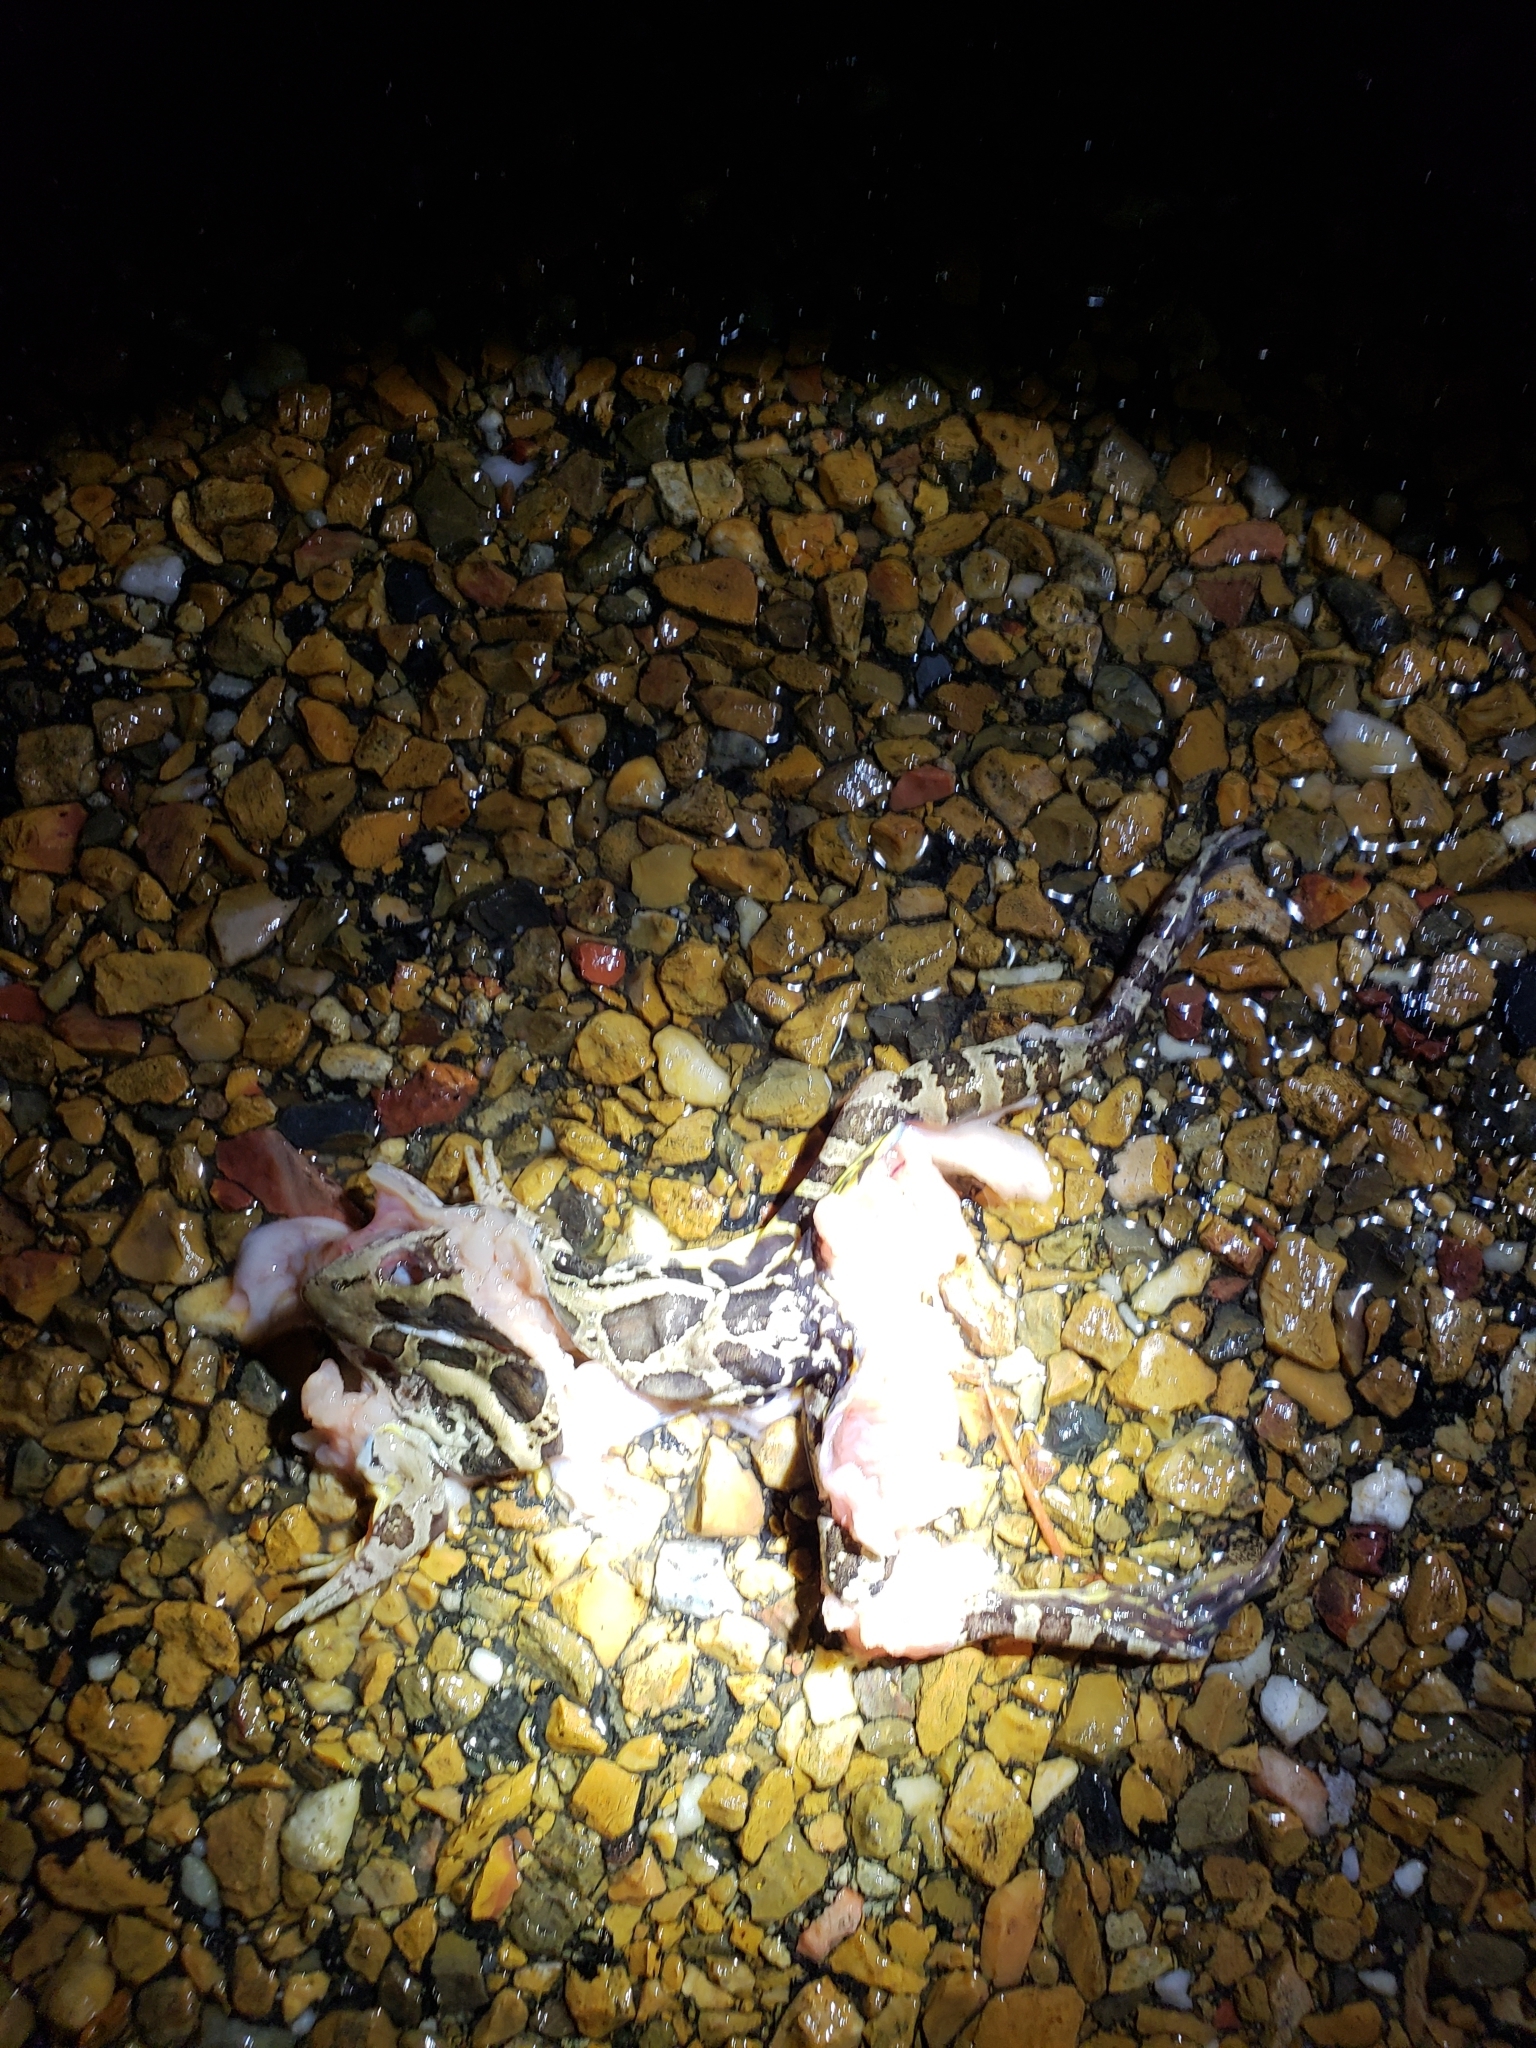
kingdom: Animalia
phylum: Chordata
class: Amphibia
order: Anura
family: Ranidae
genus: Lithobates
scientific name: Lithobates palustris
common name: Pickerel frog
